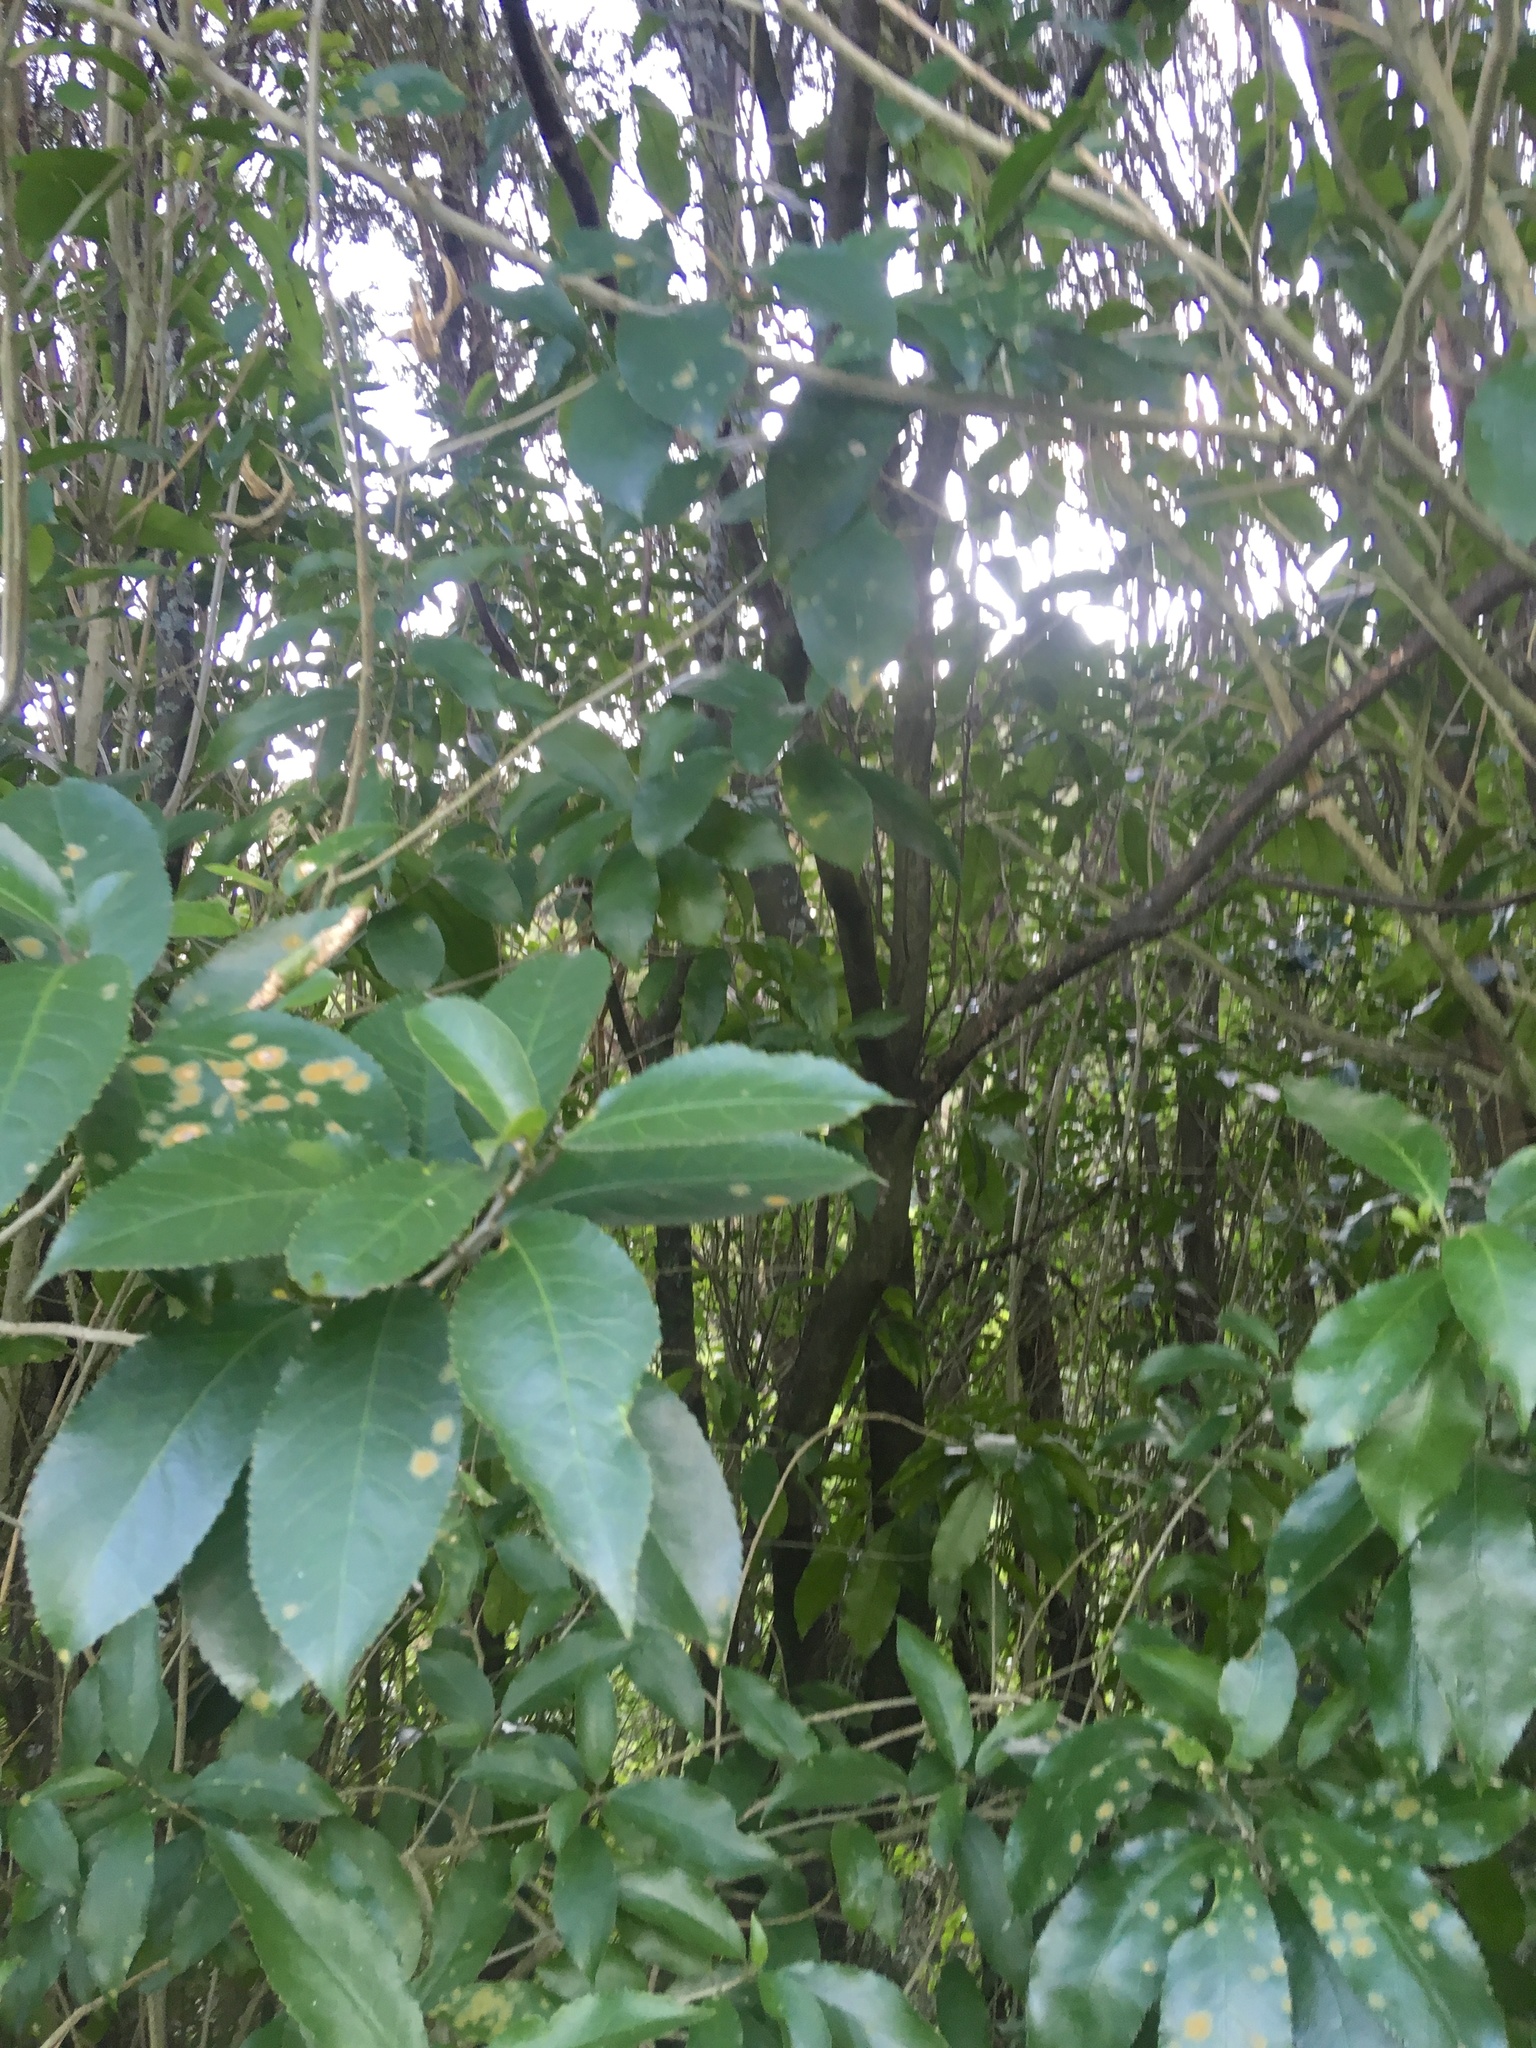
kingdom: Plantae
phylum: Tracheophyta
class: Magnoliopsida
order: Malpighiales
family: Violaceae
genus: Melicytus
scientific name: Melicytus ramiflorus
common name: Mahoe
